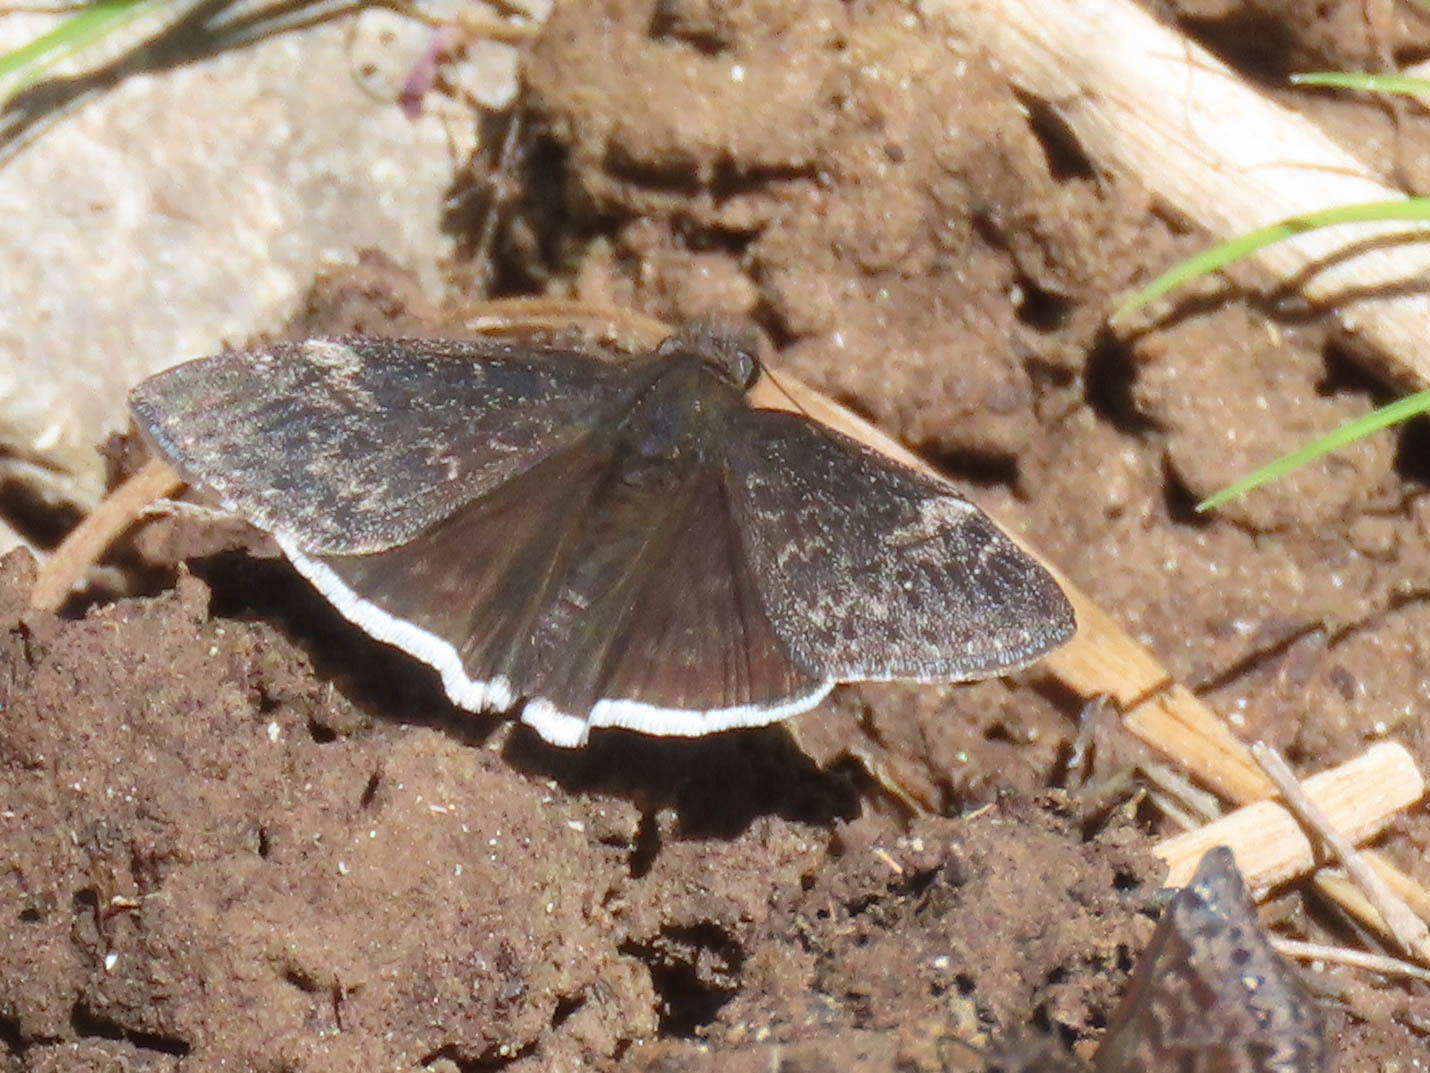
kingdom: Animalia
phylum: Arthropoda
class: Insecta
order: Lepidoptera
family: Hesperiidae
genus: Erynnis
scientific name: Erynnis funeralis
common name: Funereal duskywing
